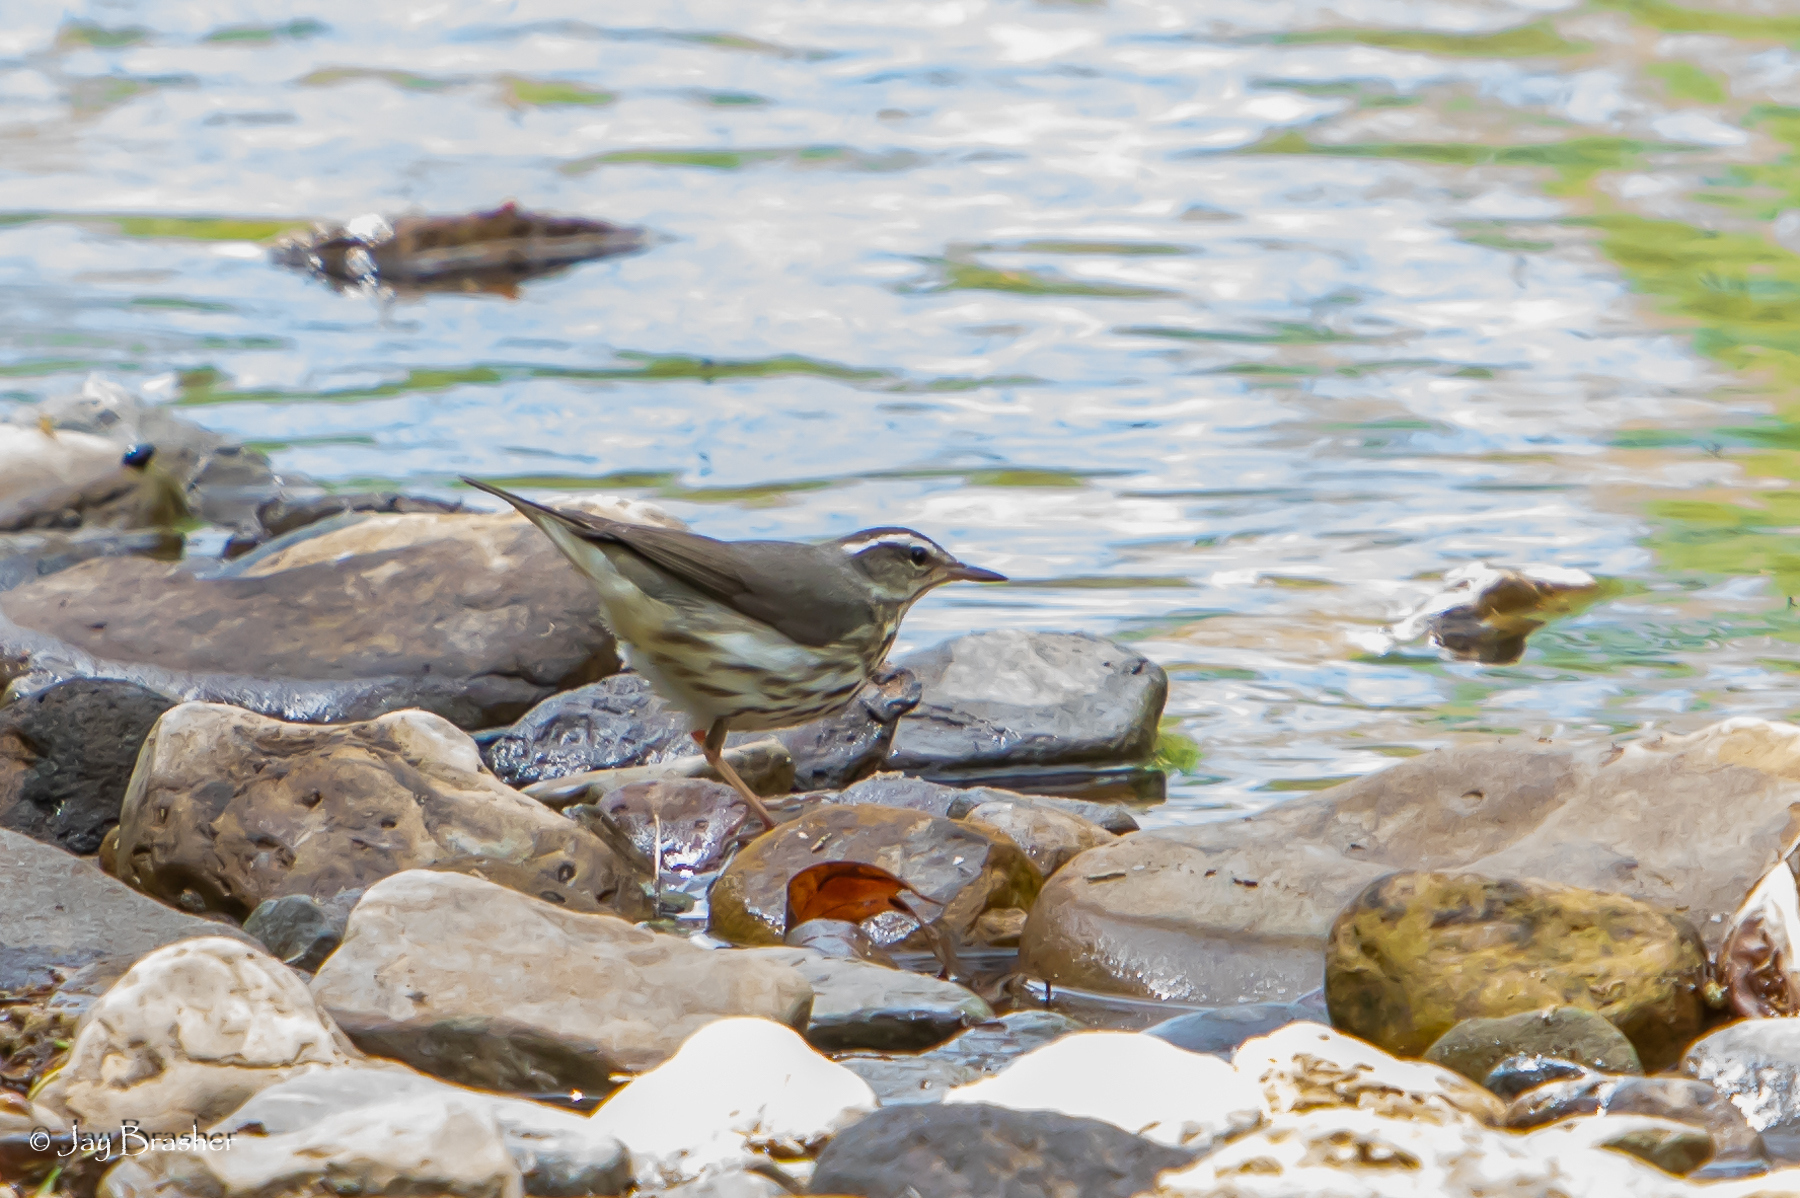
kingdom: Animalia
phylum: Chordata
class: Aves
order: Passeriformes
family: Parulidae
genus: Parkesia
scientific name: Parkesia motacilla
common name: Louisiana waterthrush
